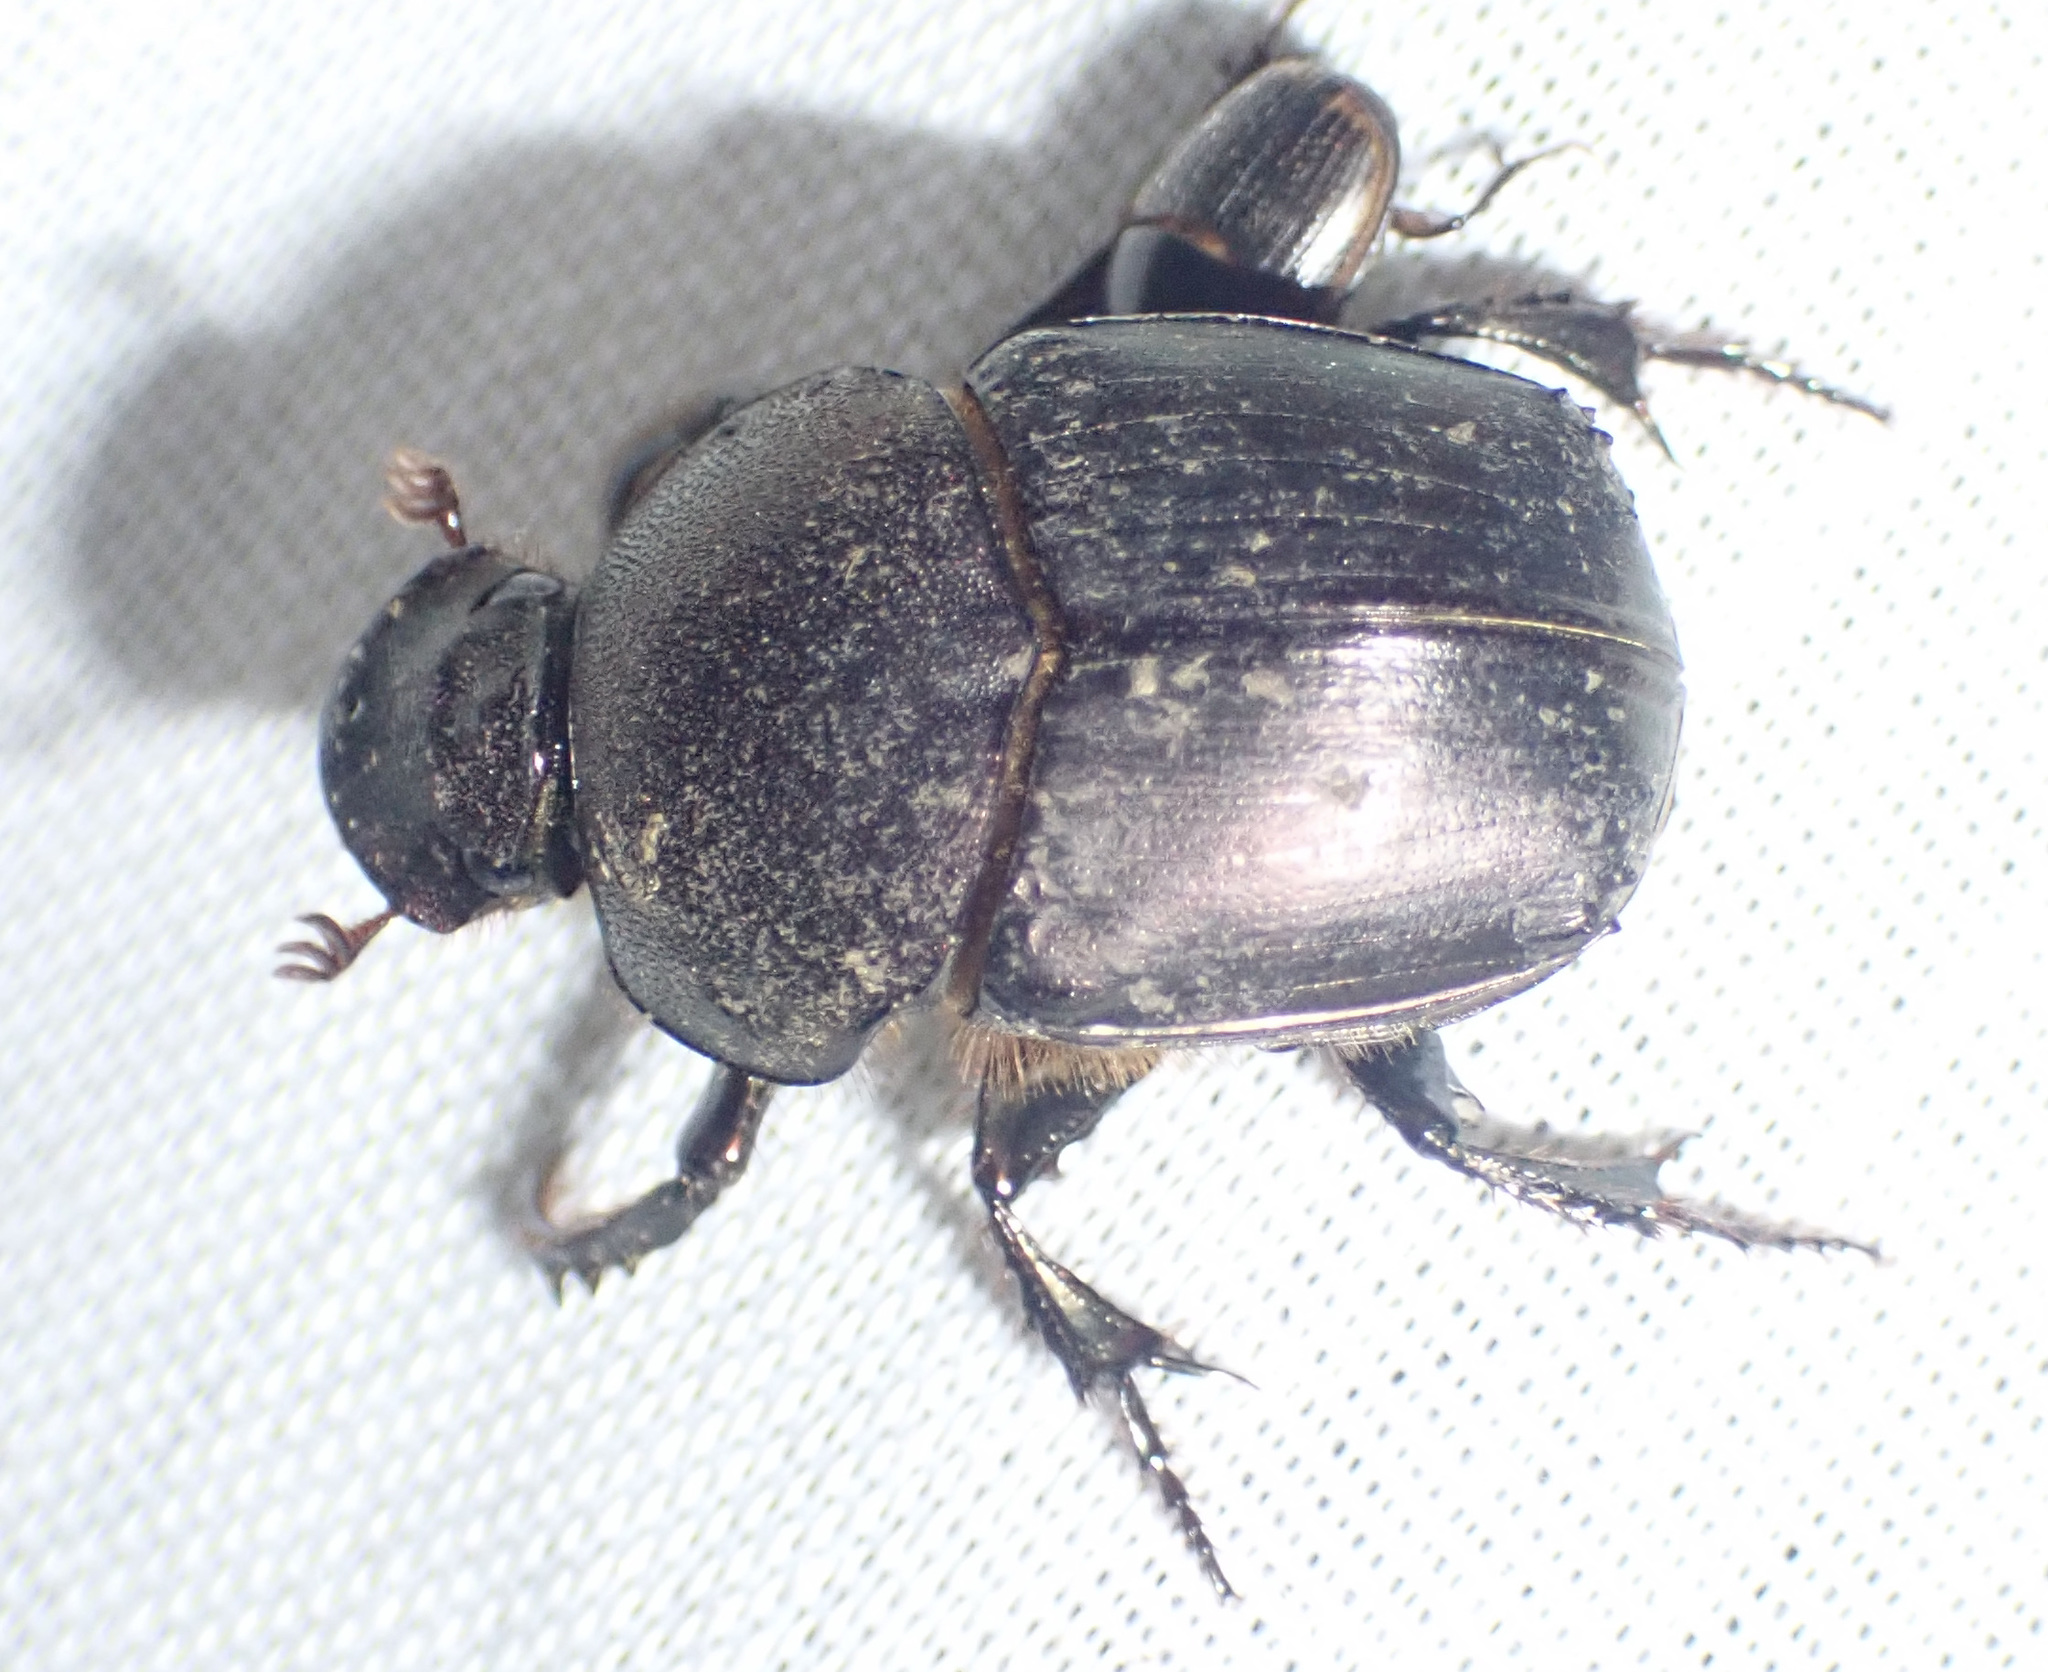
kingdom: Animalia
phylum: Arthropoda
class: Insecta
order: Coleoptera
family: Scarabaeidae
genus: Onitis
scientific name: Onitis fulgidus
